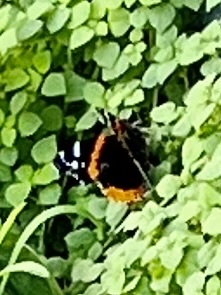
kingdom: Animalia
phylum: Arthropoda
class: Insecta
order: Lepidoptera
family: Nymphalidae
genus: Vanessa
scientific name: Vanessa atalanta
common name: Red admiral
